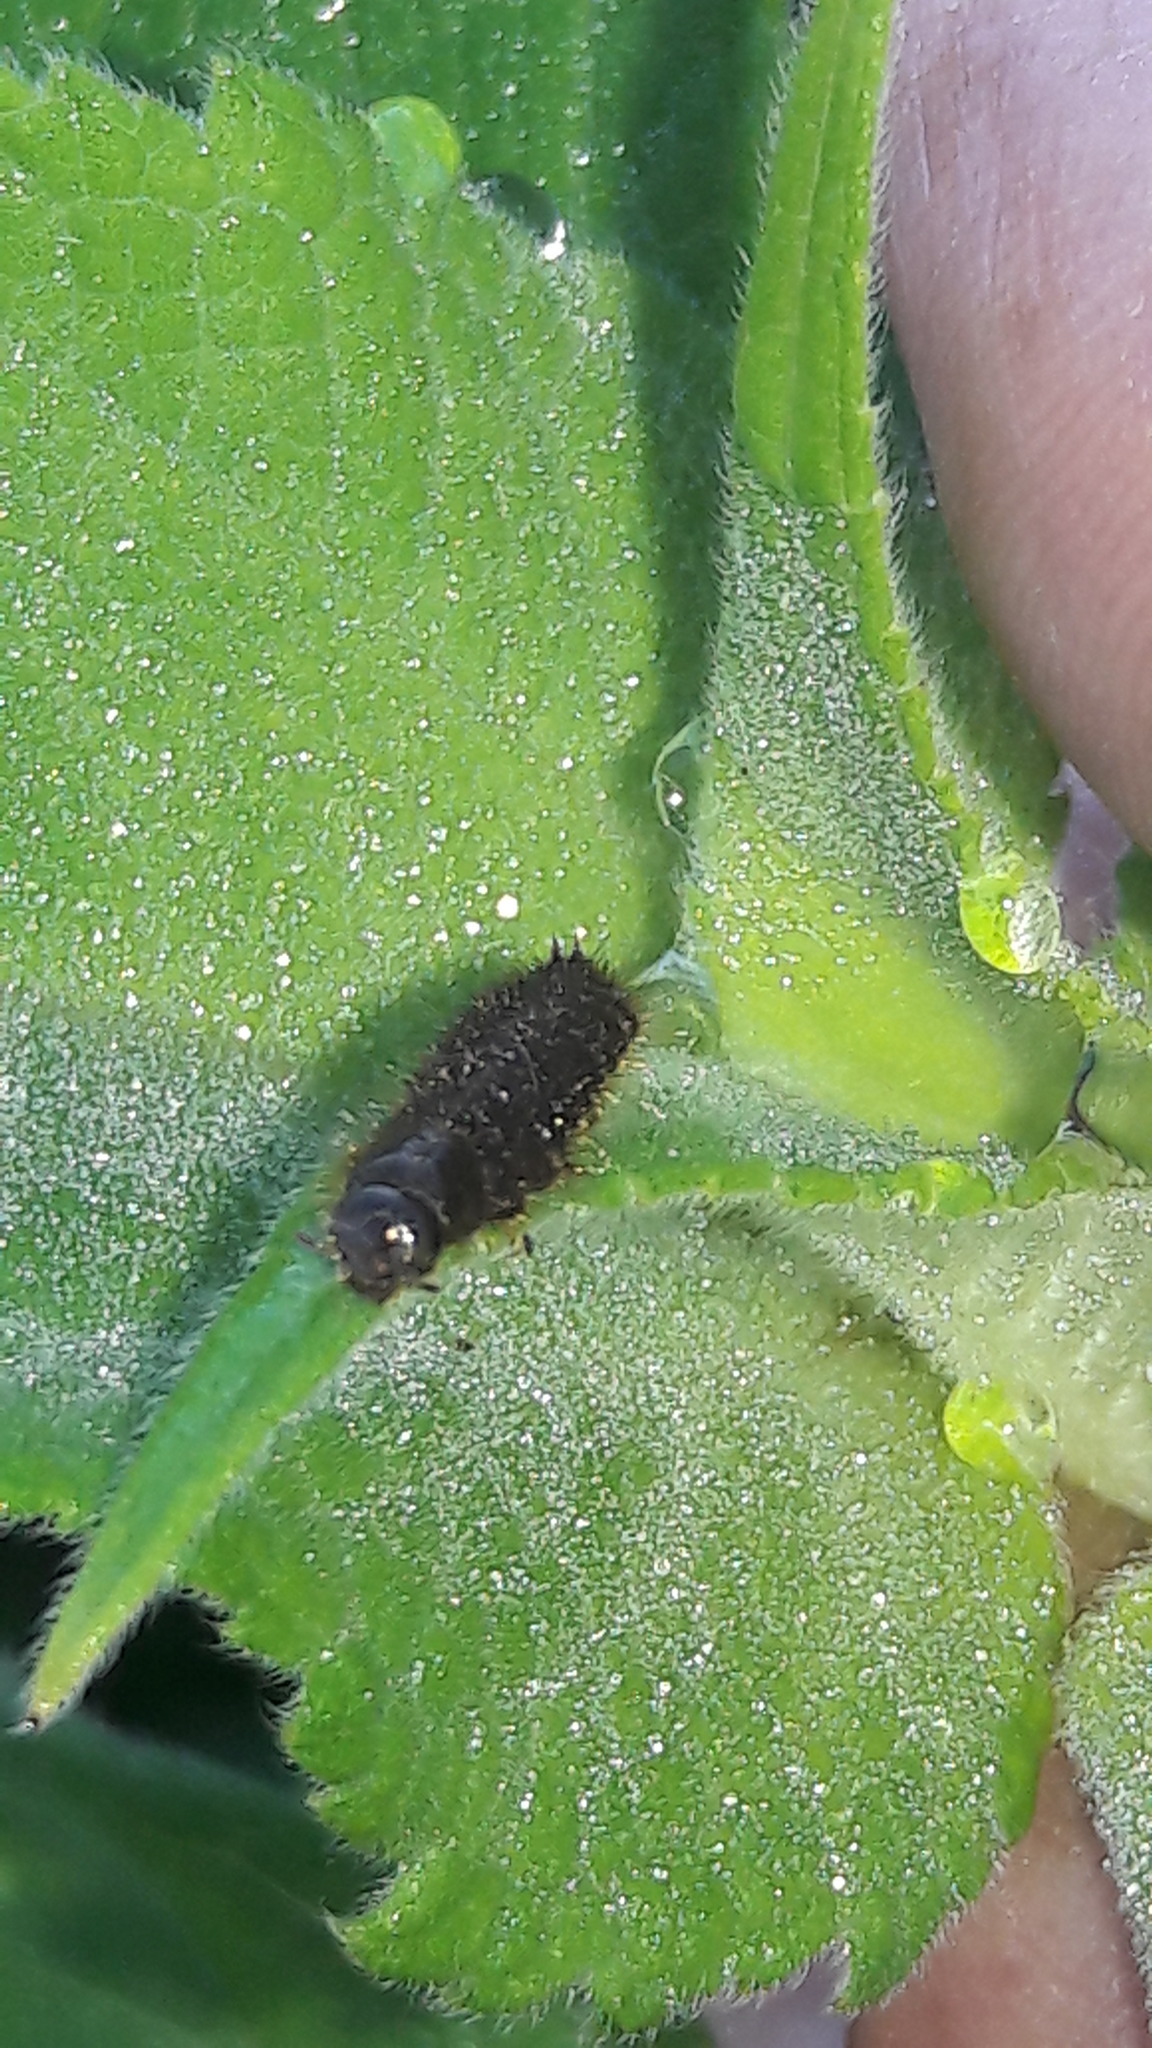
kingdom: Animalia
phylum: Arthropoda
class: Insecta
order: Coleoptera
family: Tenebrionidae
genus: Lagria
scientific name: Lagria villosa
